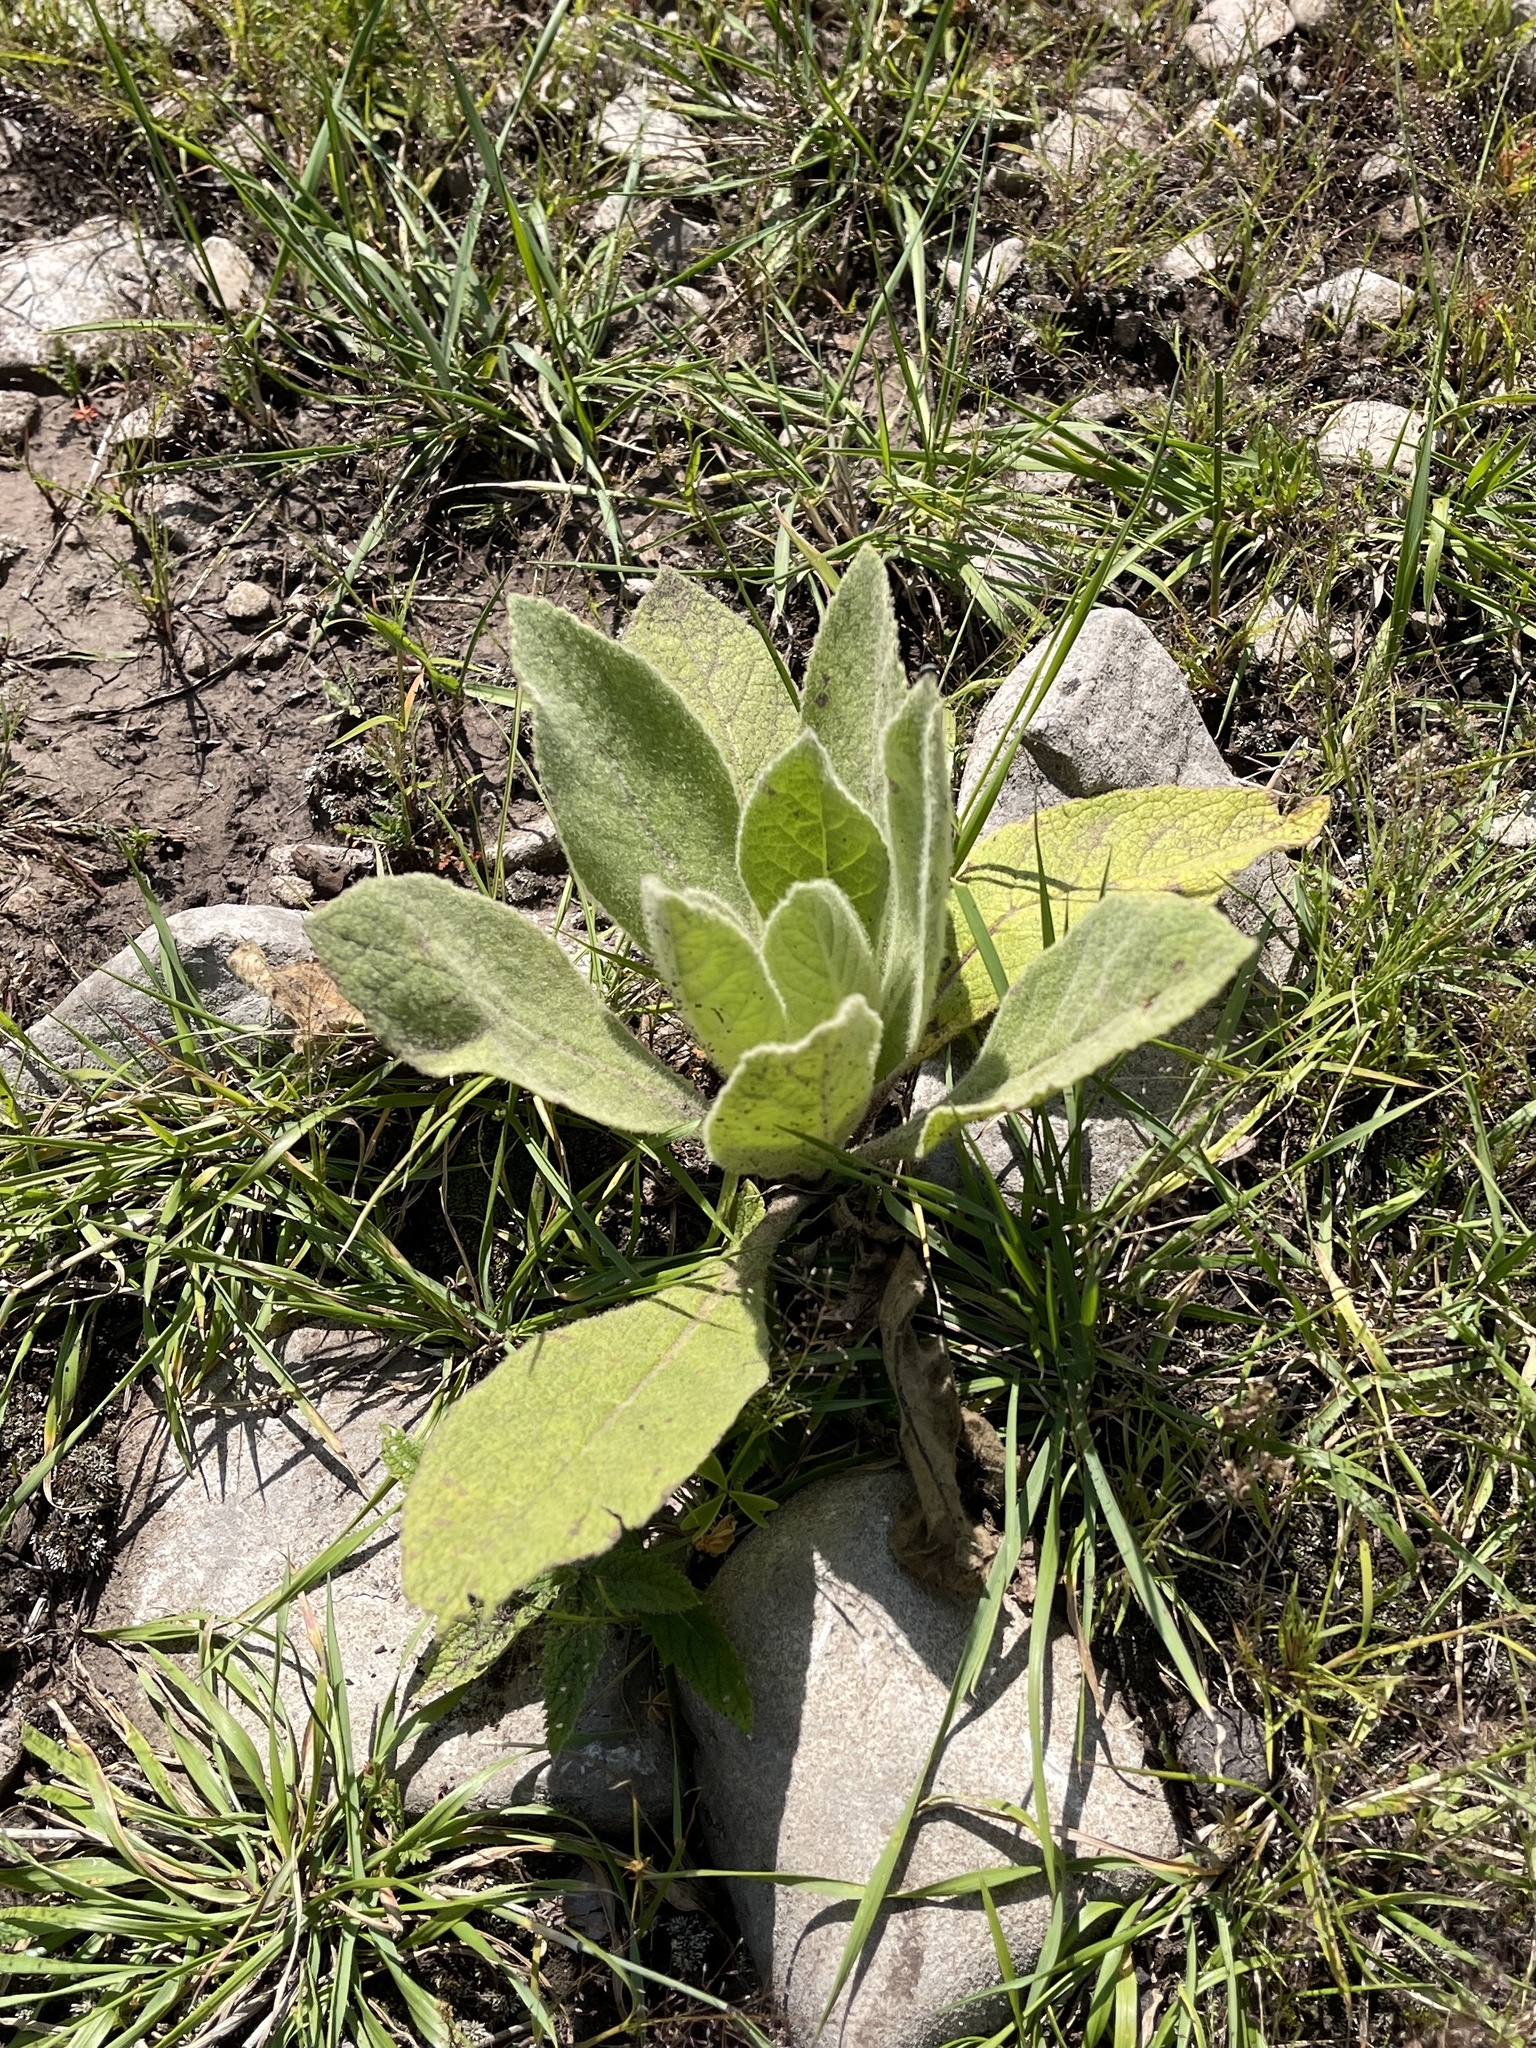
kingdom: Plantae
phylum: Tracheophyta
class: Magnoliopsida
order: Lamiales
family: Scrophulariaceae
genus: Verbascum
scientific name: Verbascum thapsus
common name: Common mullein
